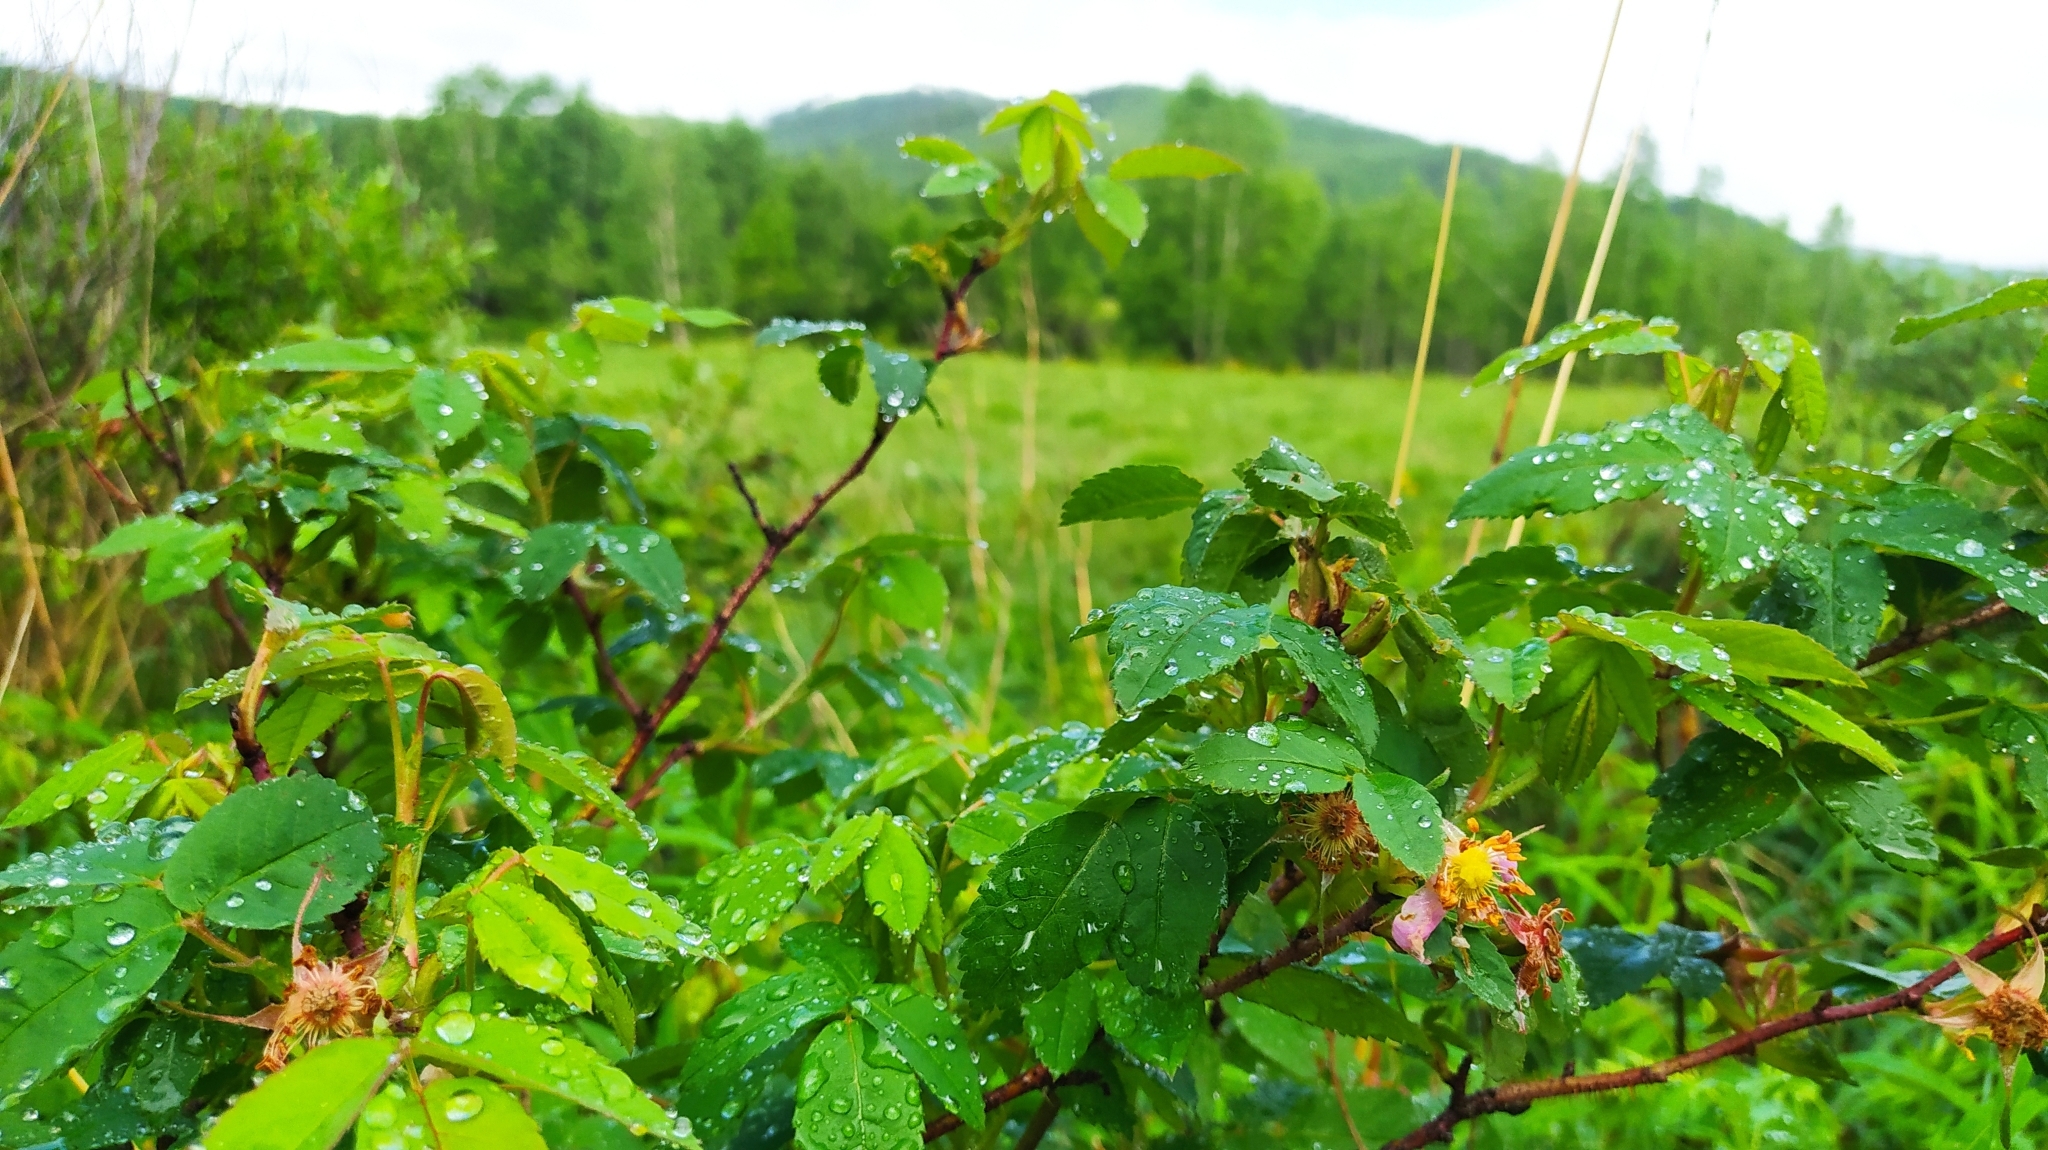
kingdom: Plantae
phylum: Tracheophyta
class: Magnoliopsida
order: Rosales
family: Rosaceae
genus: Rosa
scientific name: Rosa acicularis
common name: Prickly rose
